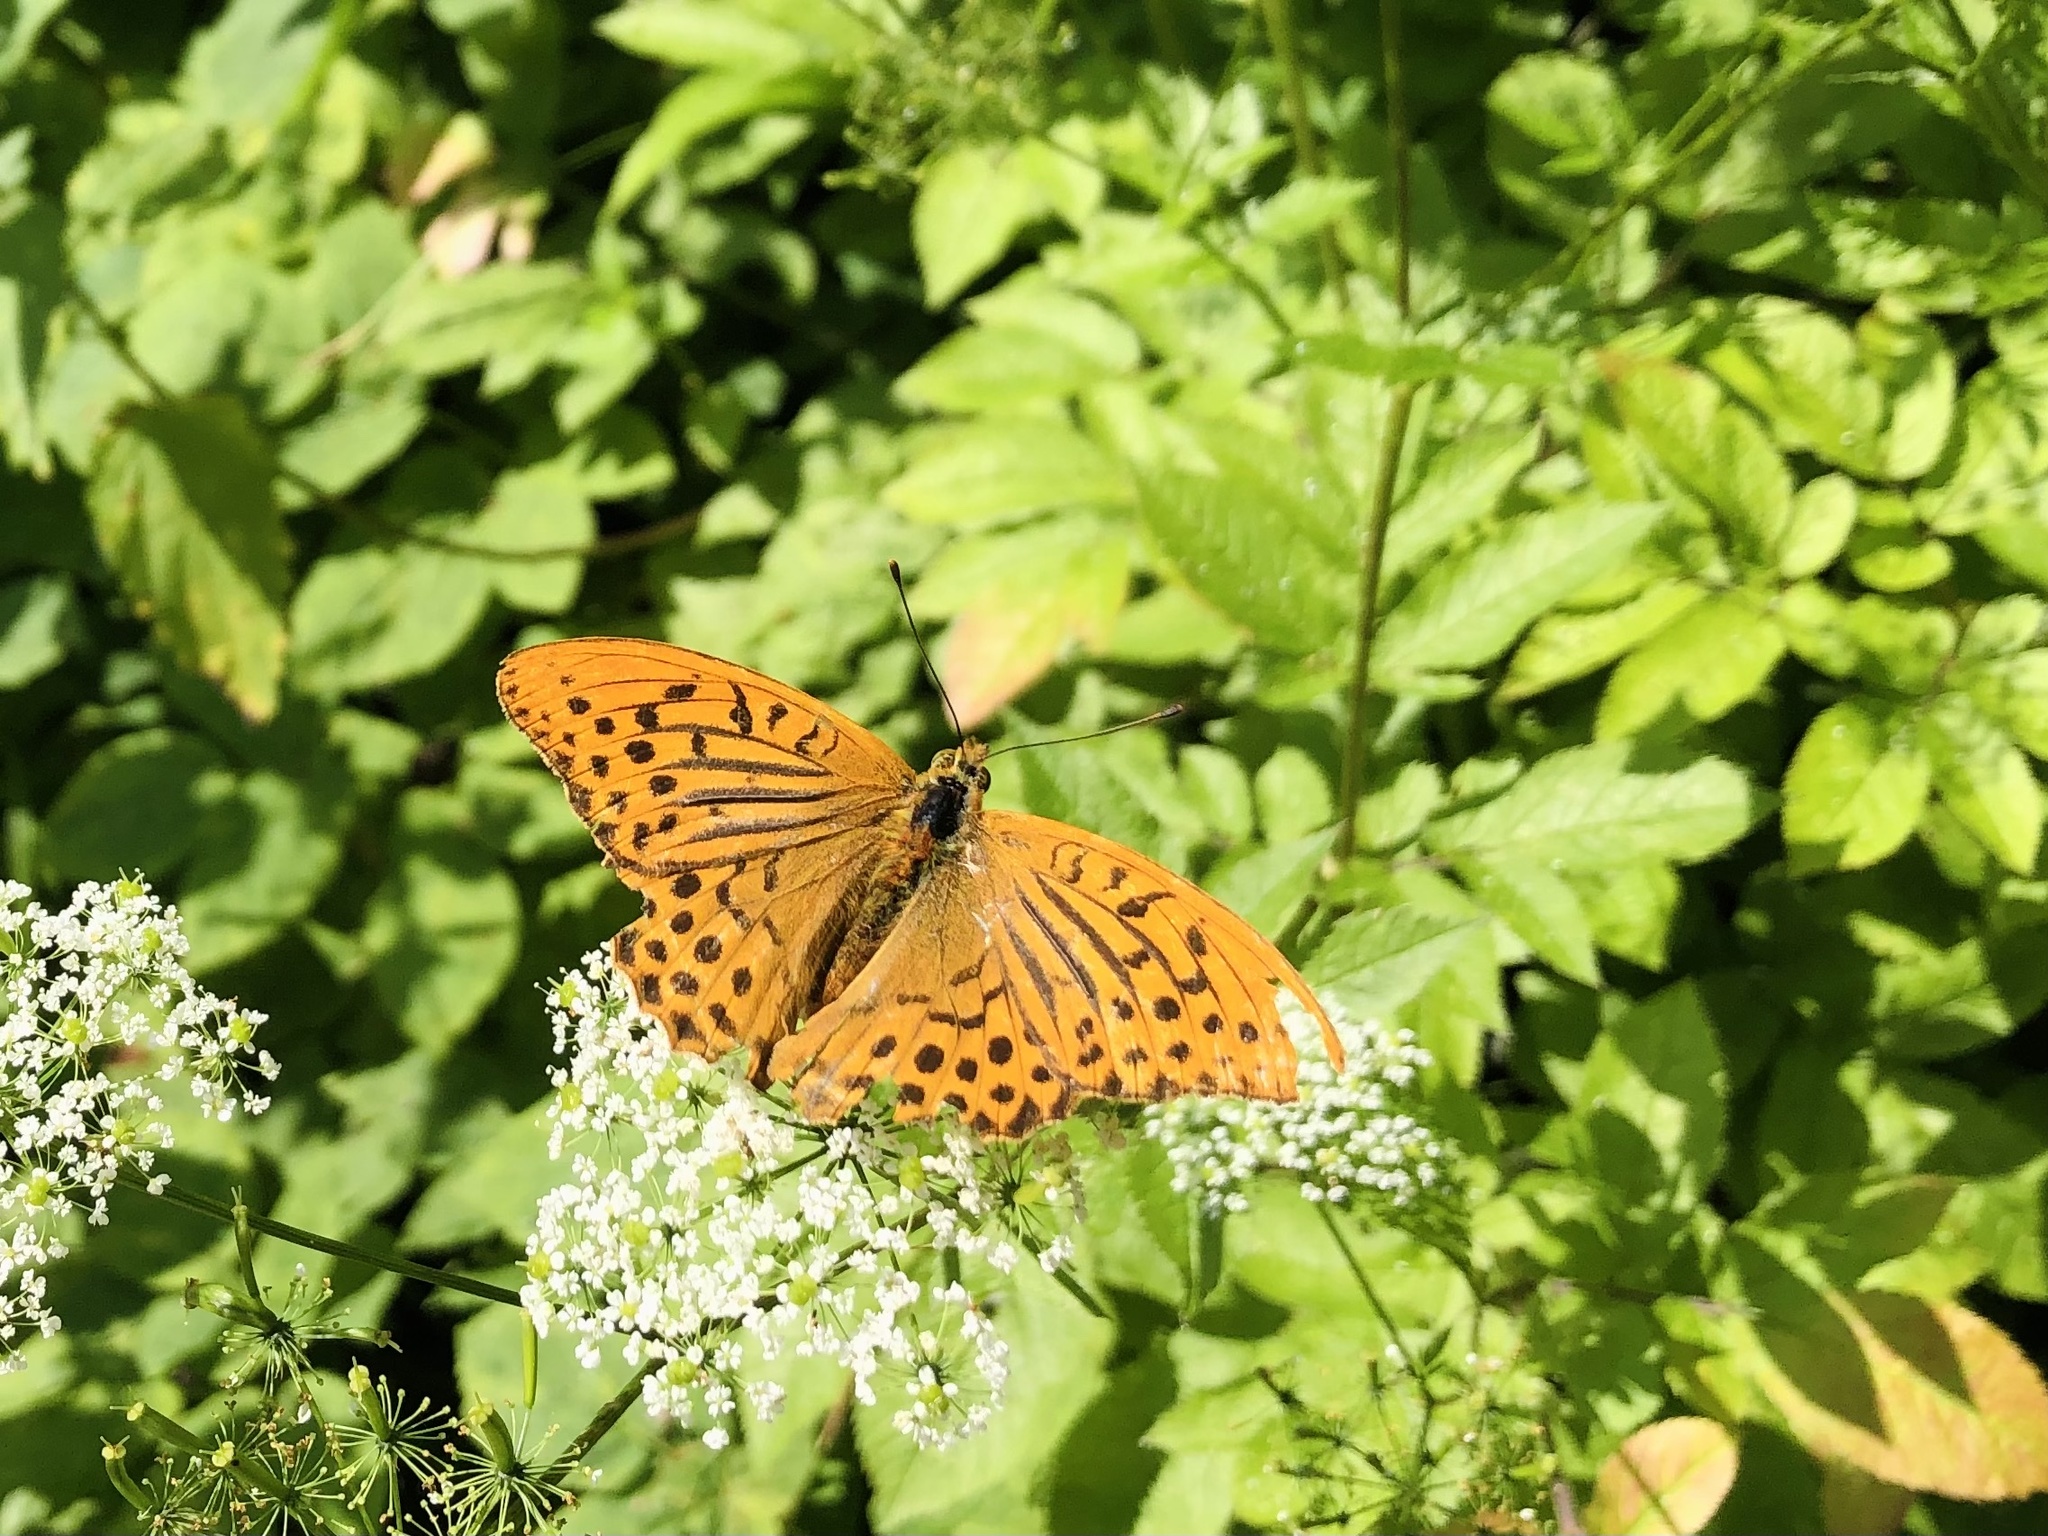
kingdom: Animalia
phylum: Arthropoda
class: Insecta
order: Lepidoptera
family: Nymphalidae
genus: Argynnis
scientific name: Argynnis paphia
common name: Silver-washed fritillary
